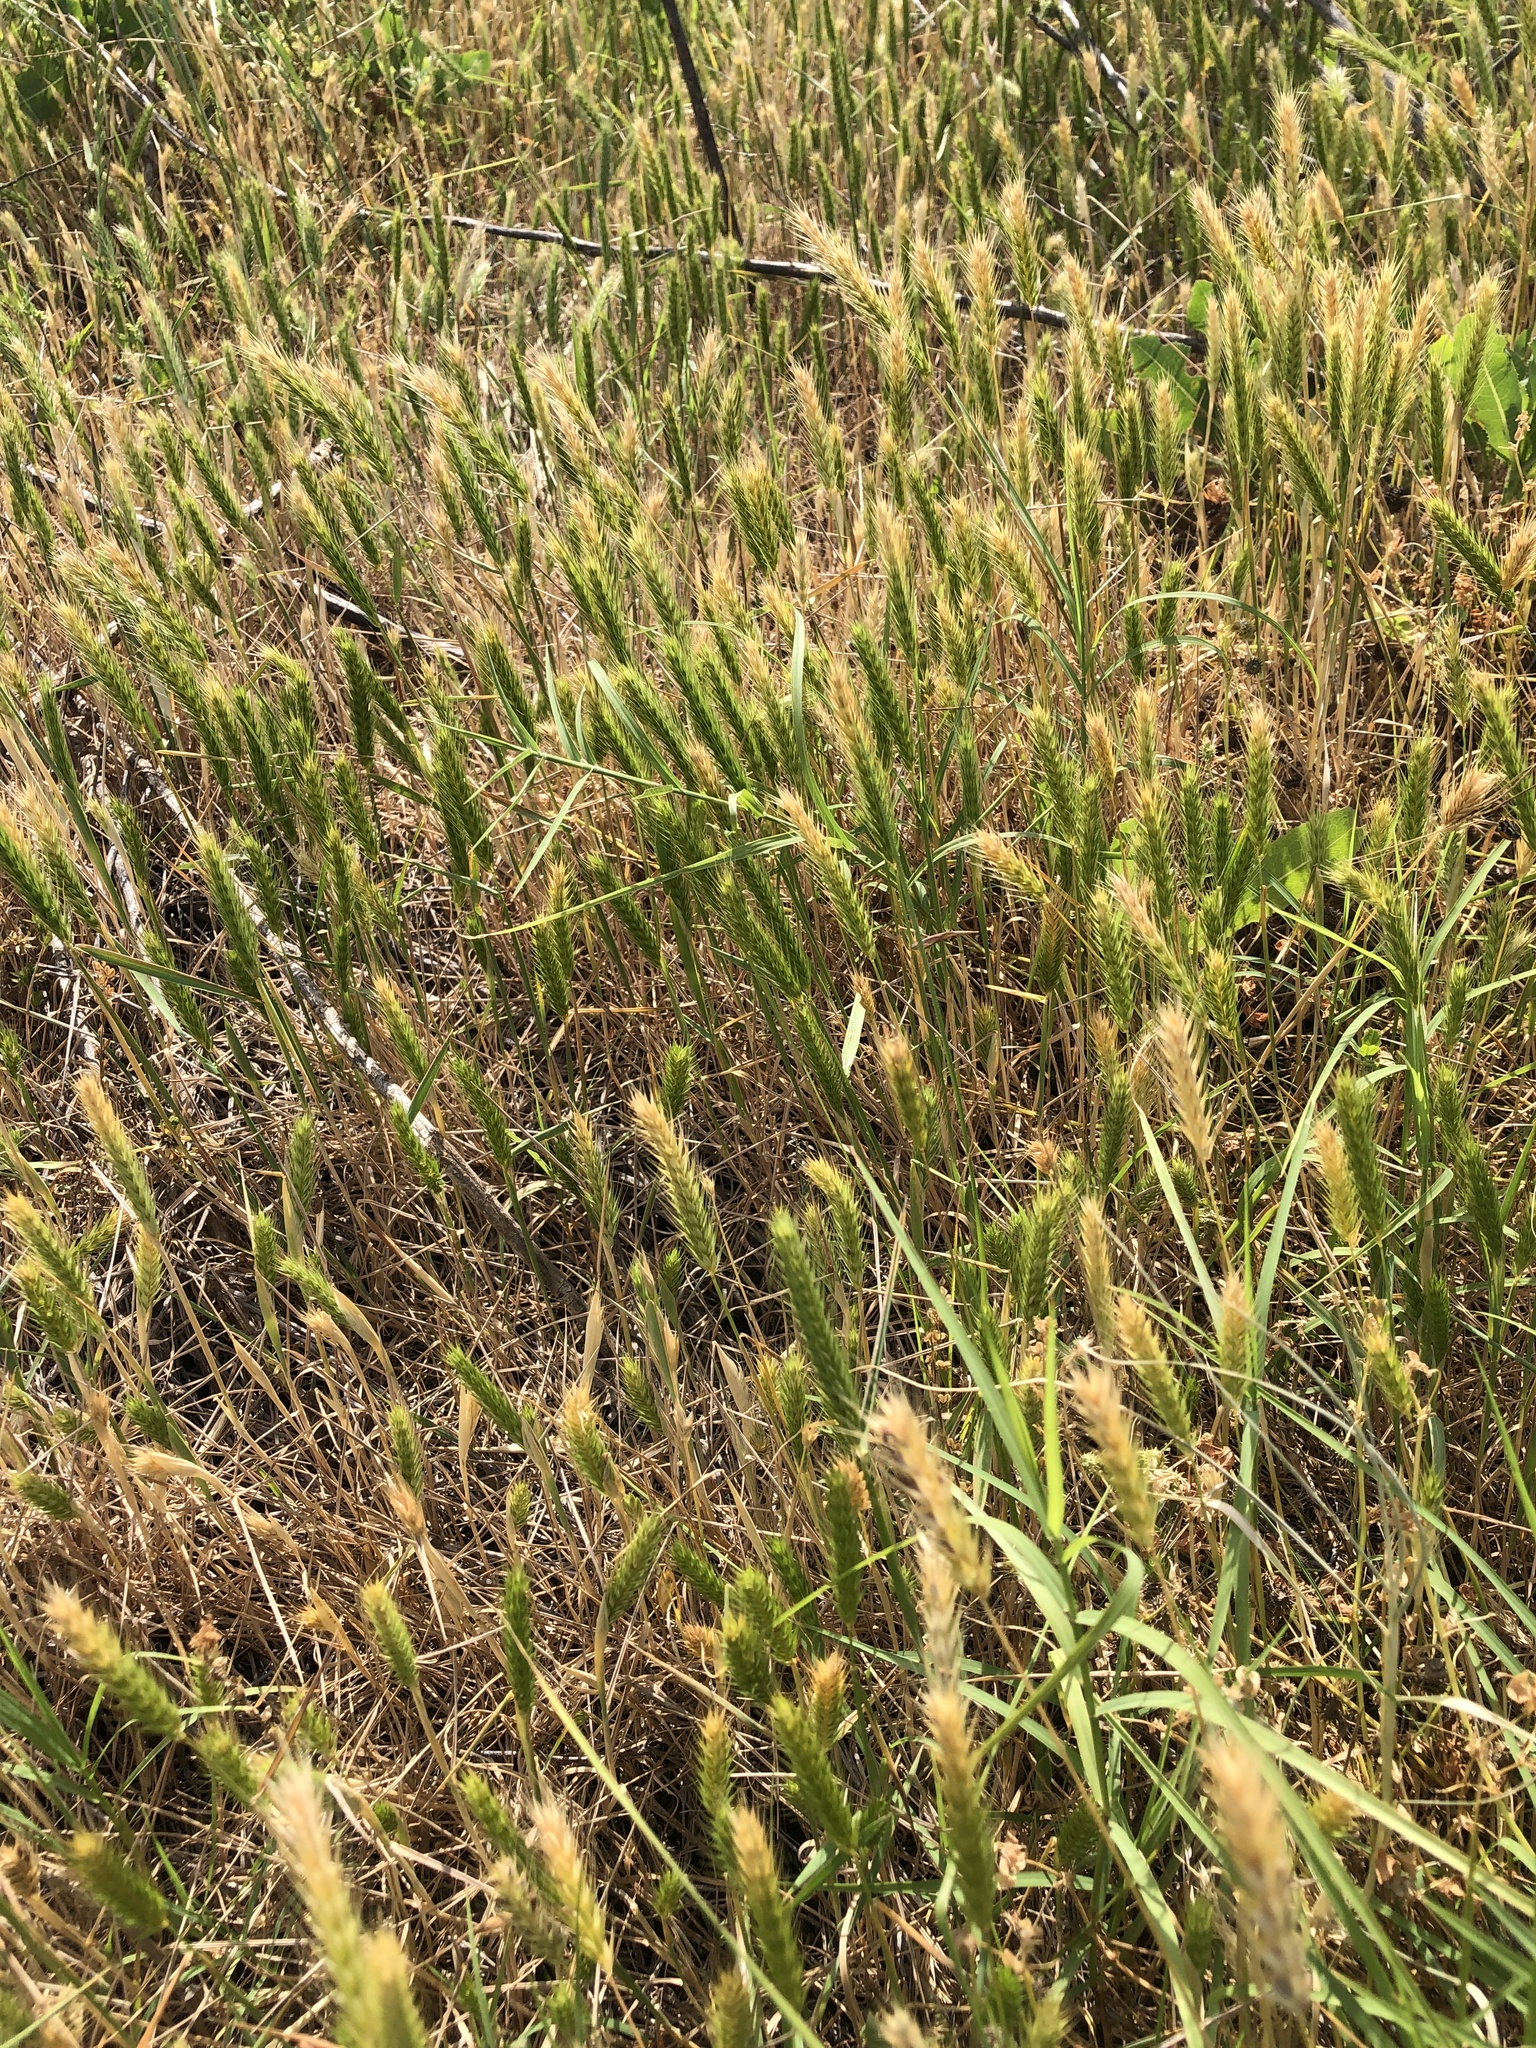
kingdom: Plantae
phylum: Tracheophyta
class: Liliopsida
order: Poales
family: Poaceae
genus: Hordeum
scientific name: Hordeum pusillum
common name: Little barley
